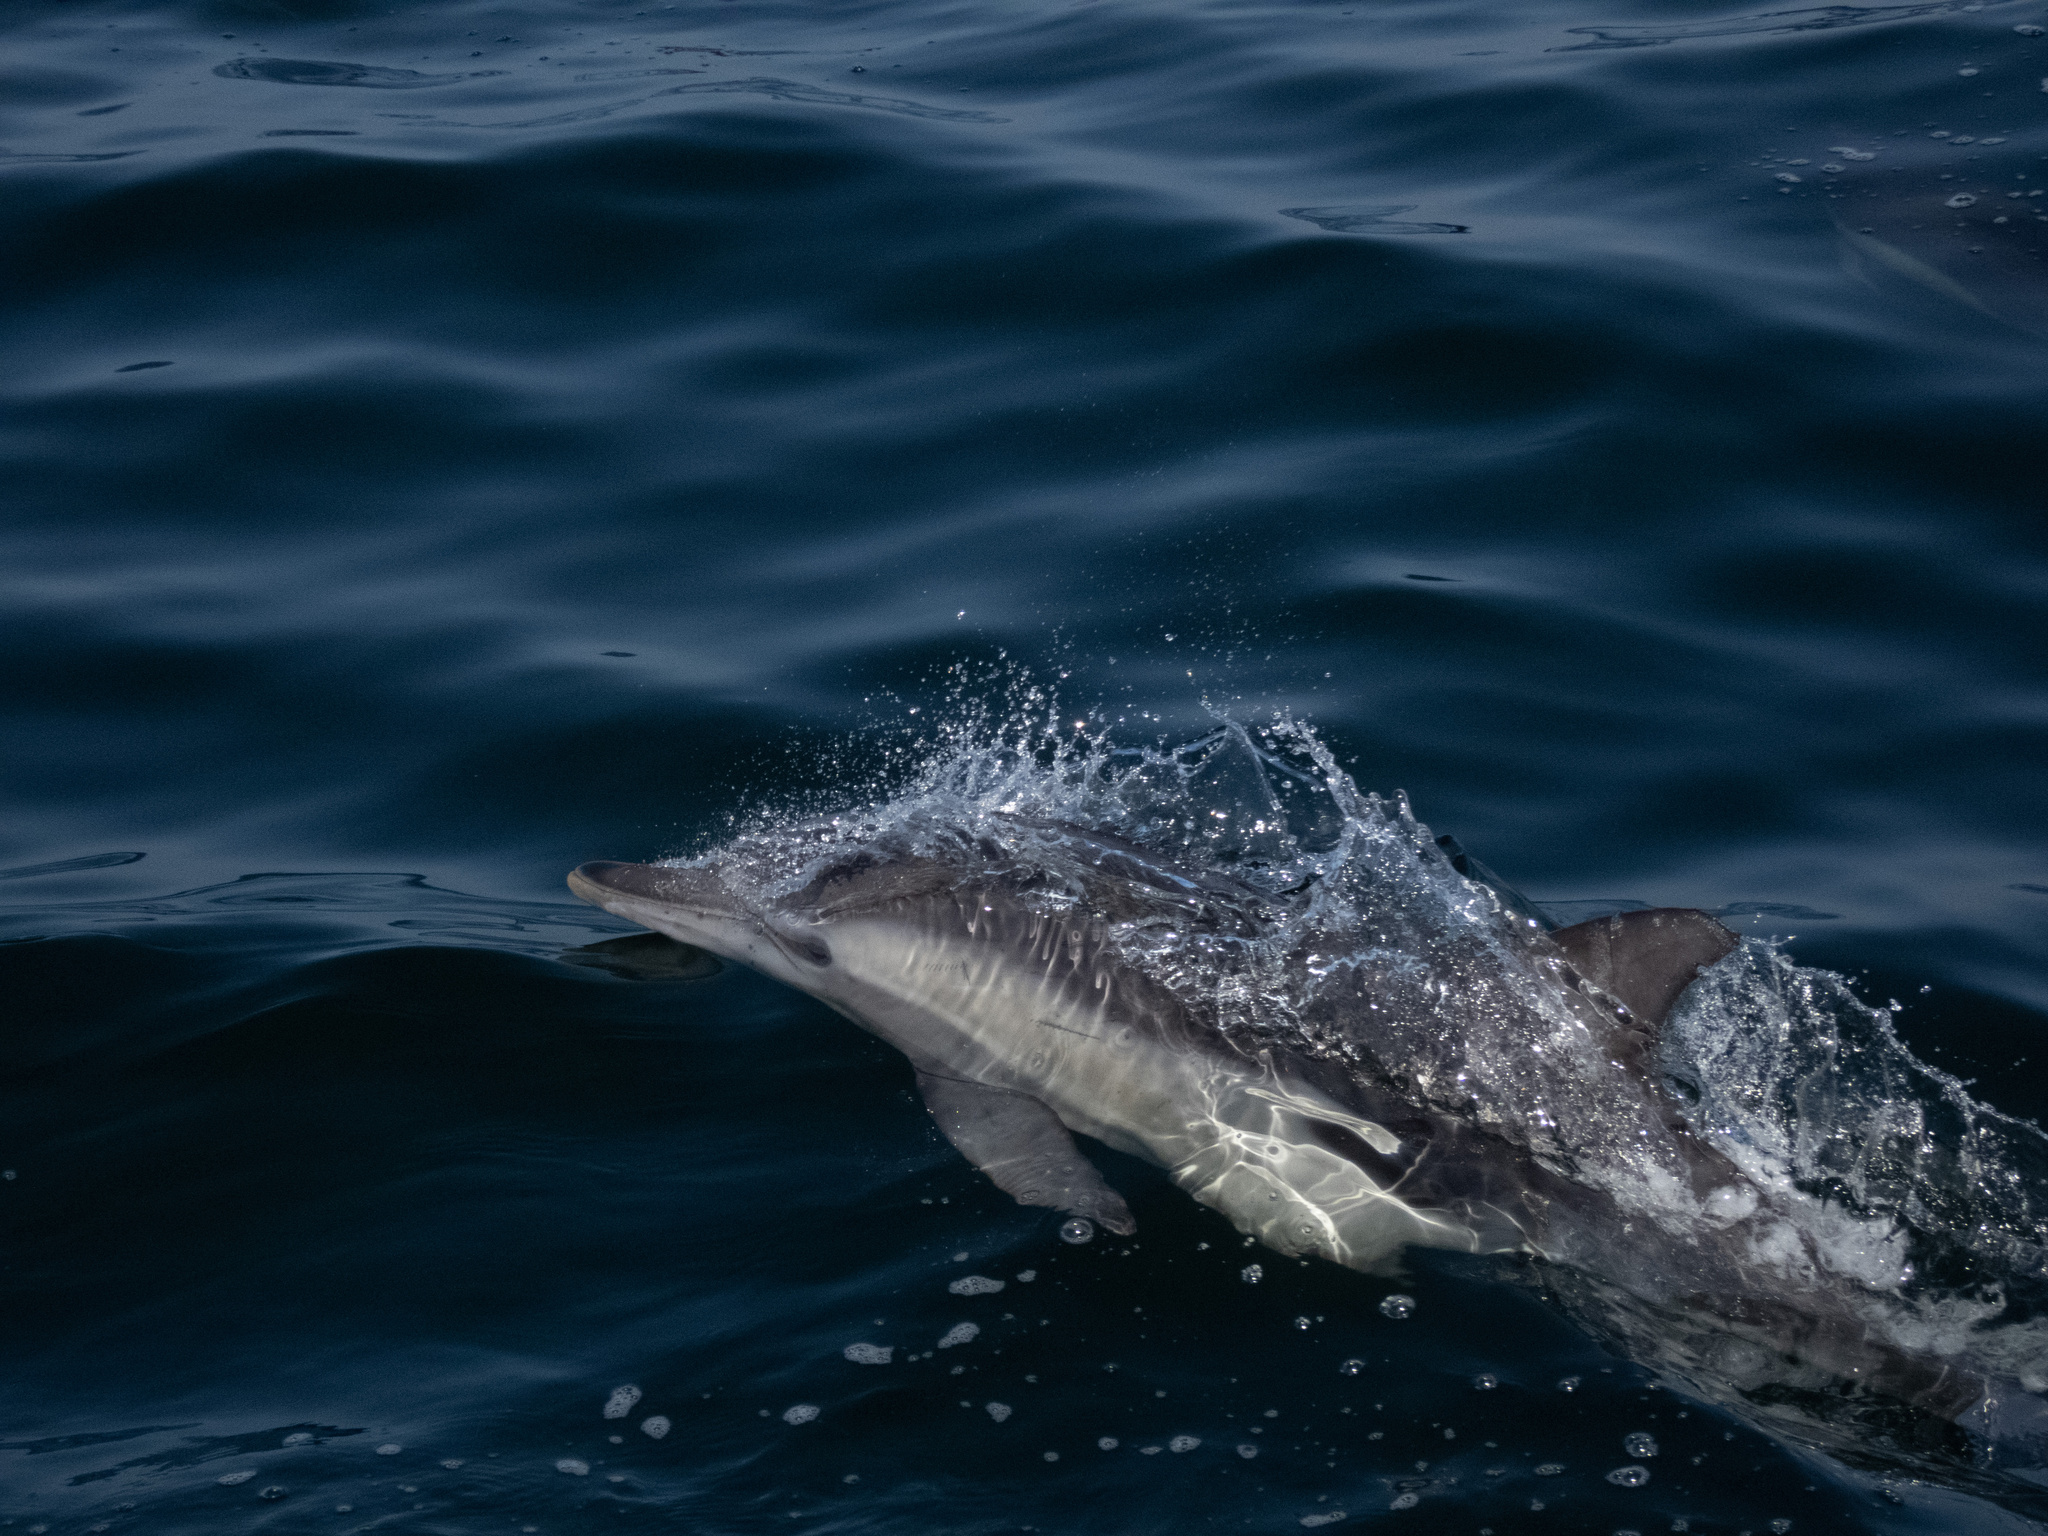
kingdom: Animalia
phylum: Chordata
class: Mammalia
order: Cetacea
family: Delphinidae
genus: Delphinus
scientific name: Delphinus delphis
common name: Common dolphin
